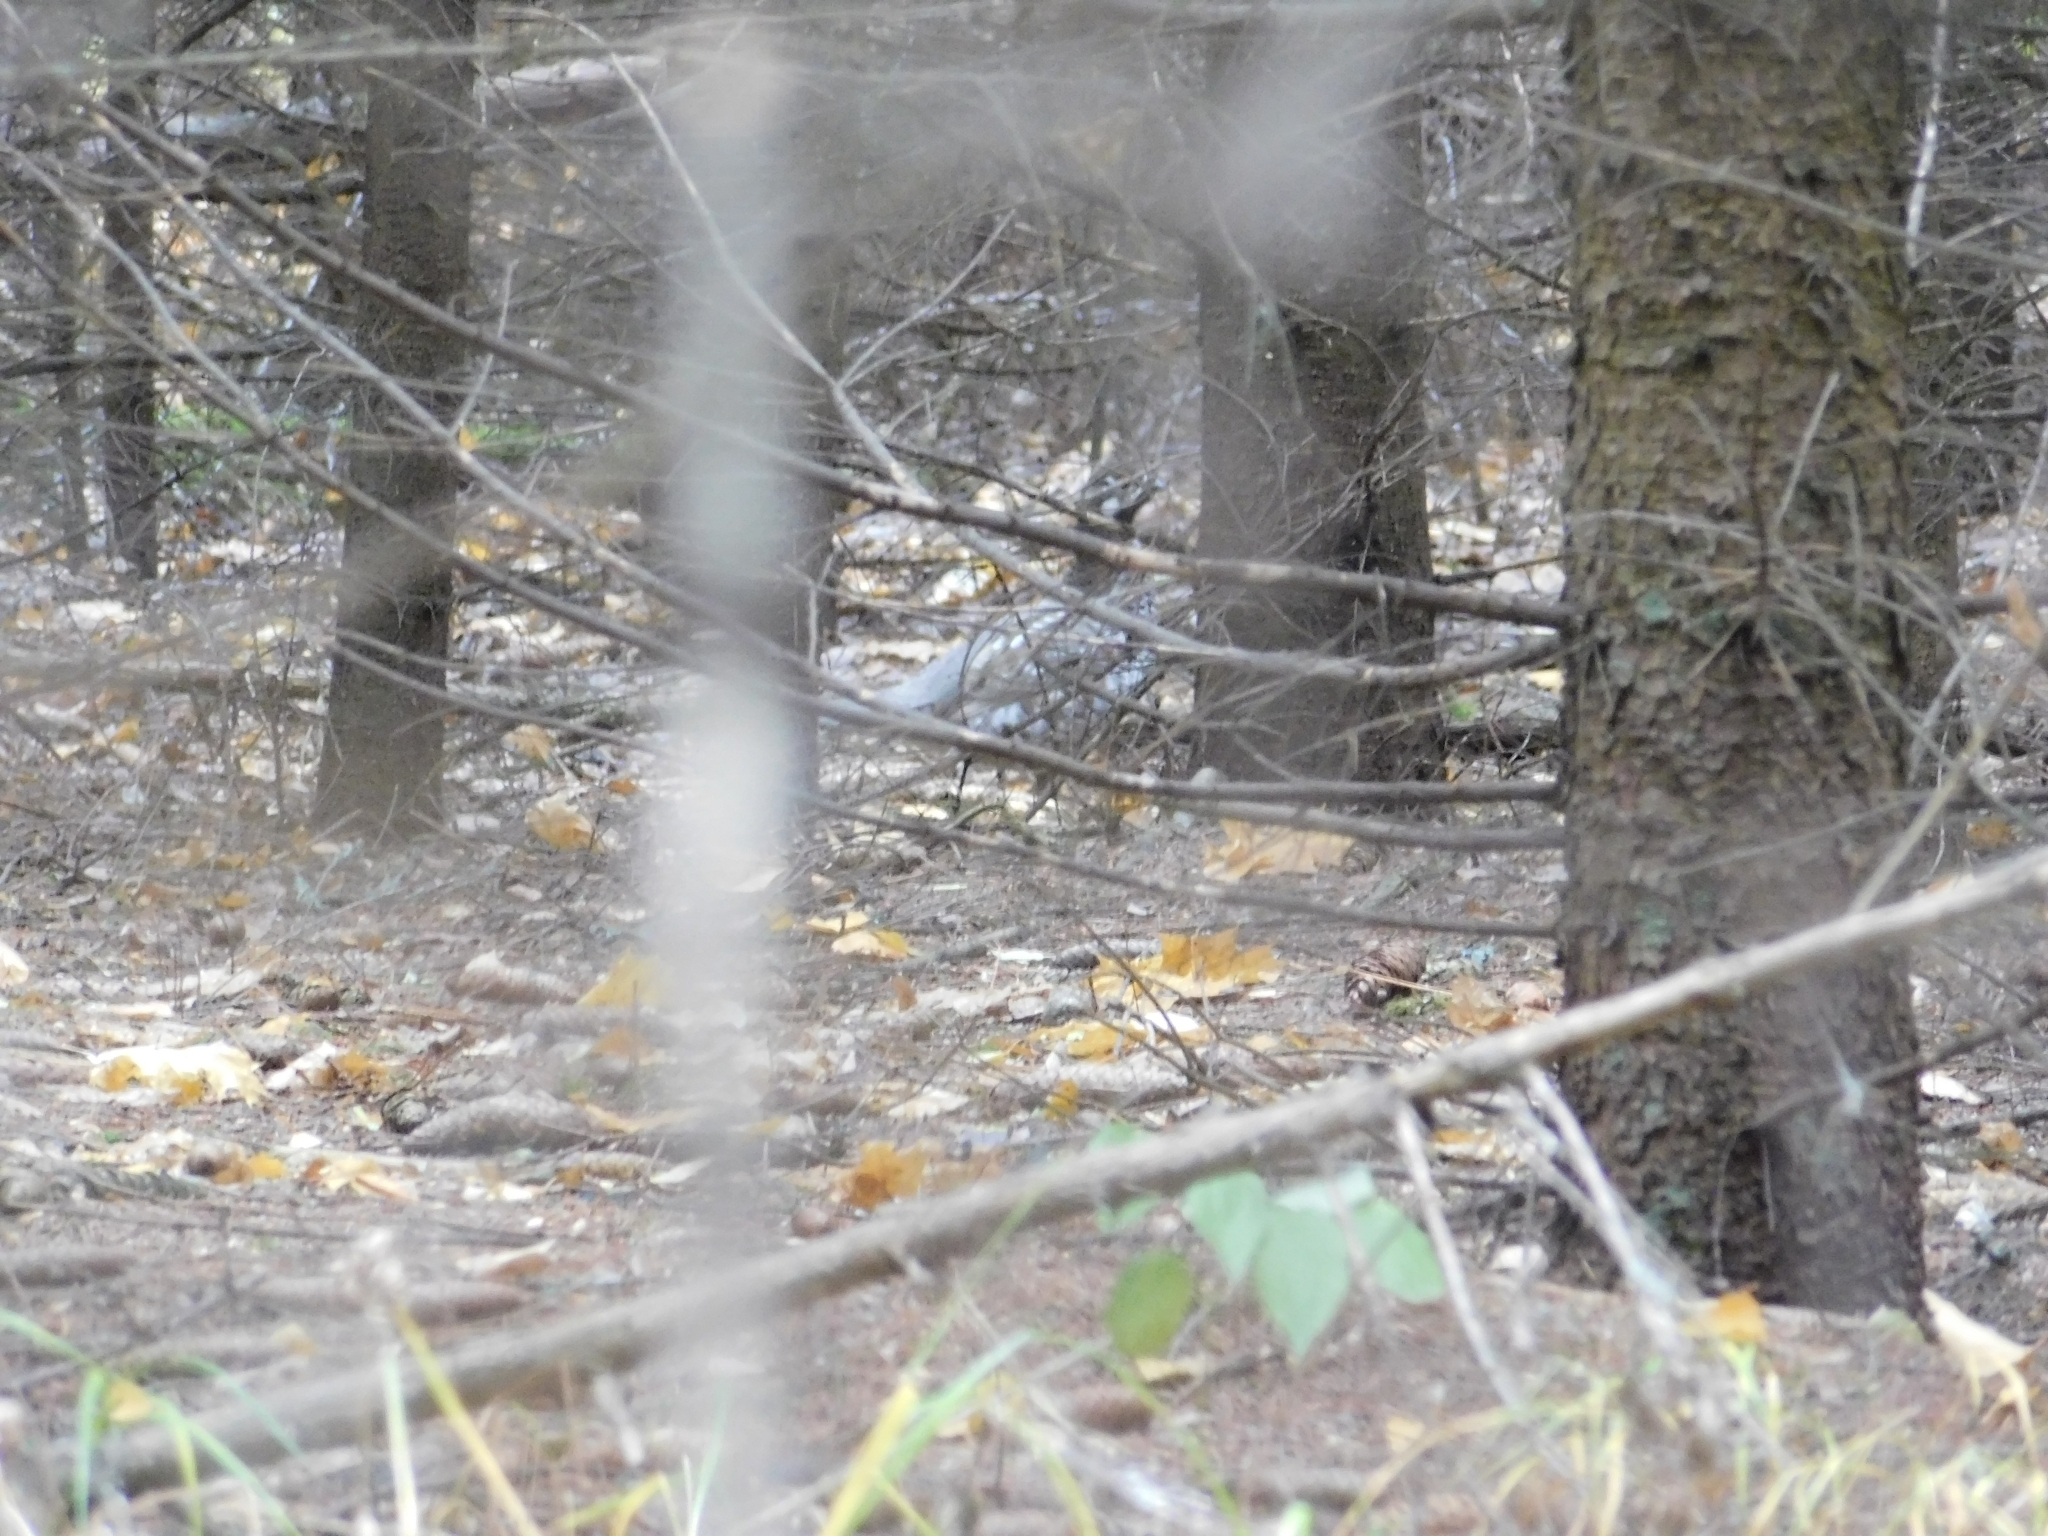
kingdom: Animalia
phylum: Chordata
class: Aves
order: Galliformes
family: Phasianidae
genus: Tetrastes
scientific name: Tetrastes bonasia
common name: Hazel grouse
